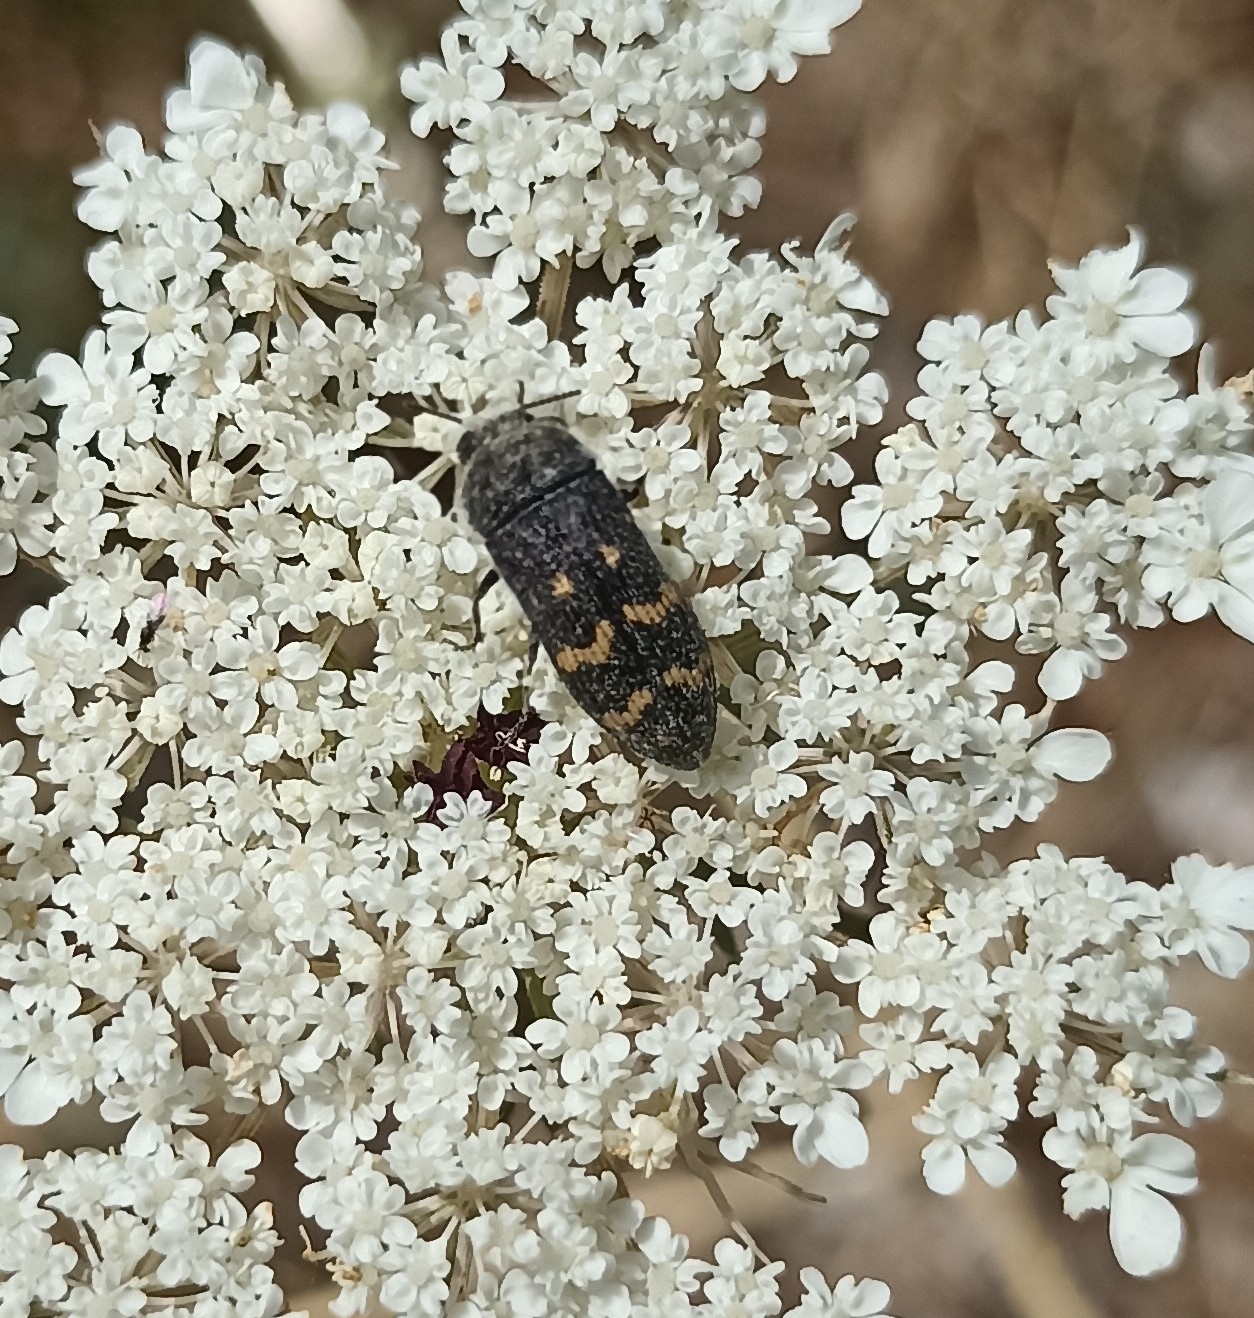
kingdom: Animalia
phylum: Arthropoda
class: Insecta
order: Coleoptera
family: Buprestidae
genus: Acmaeoderella
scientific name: Acmaeoderella flavofasciata
